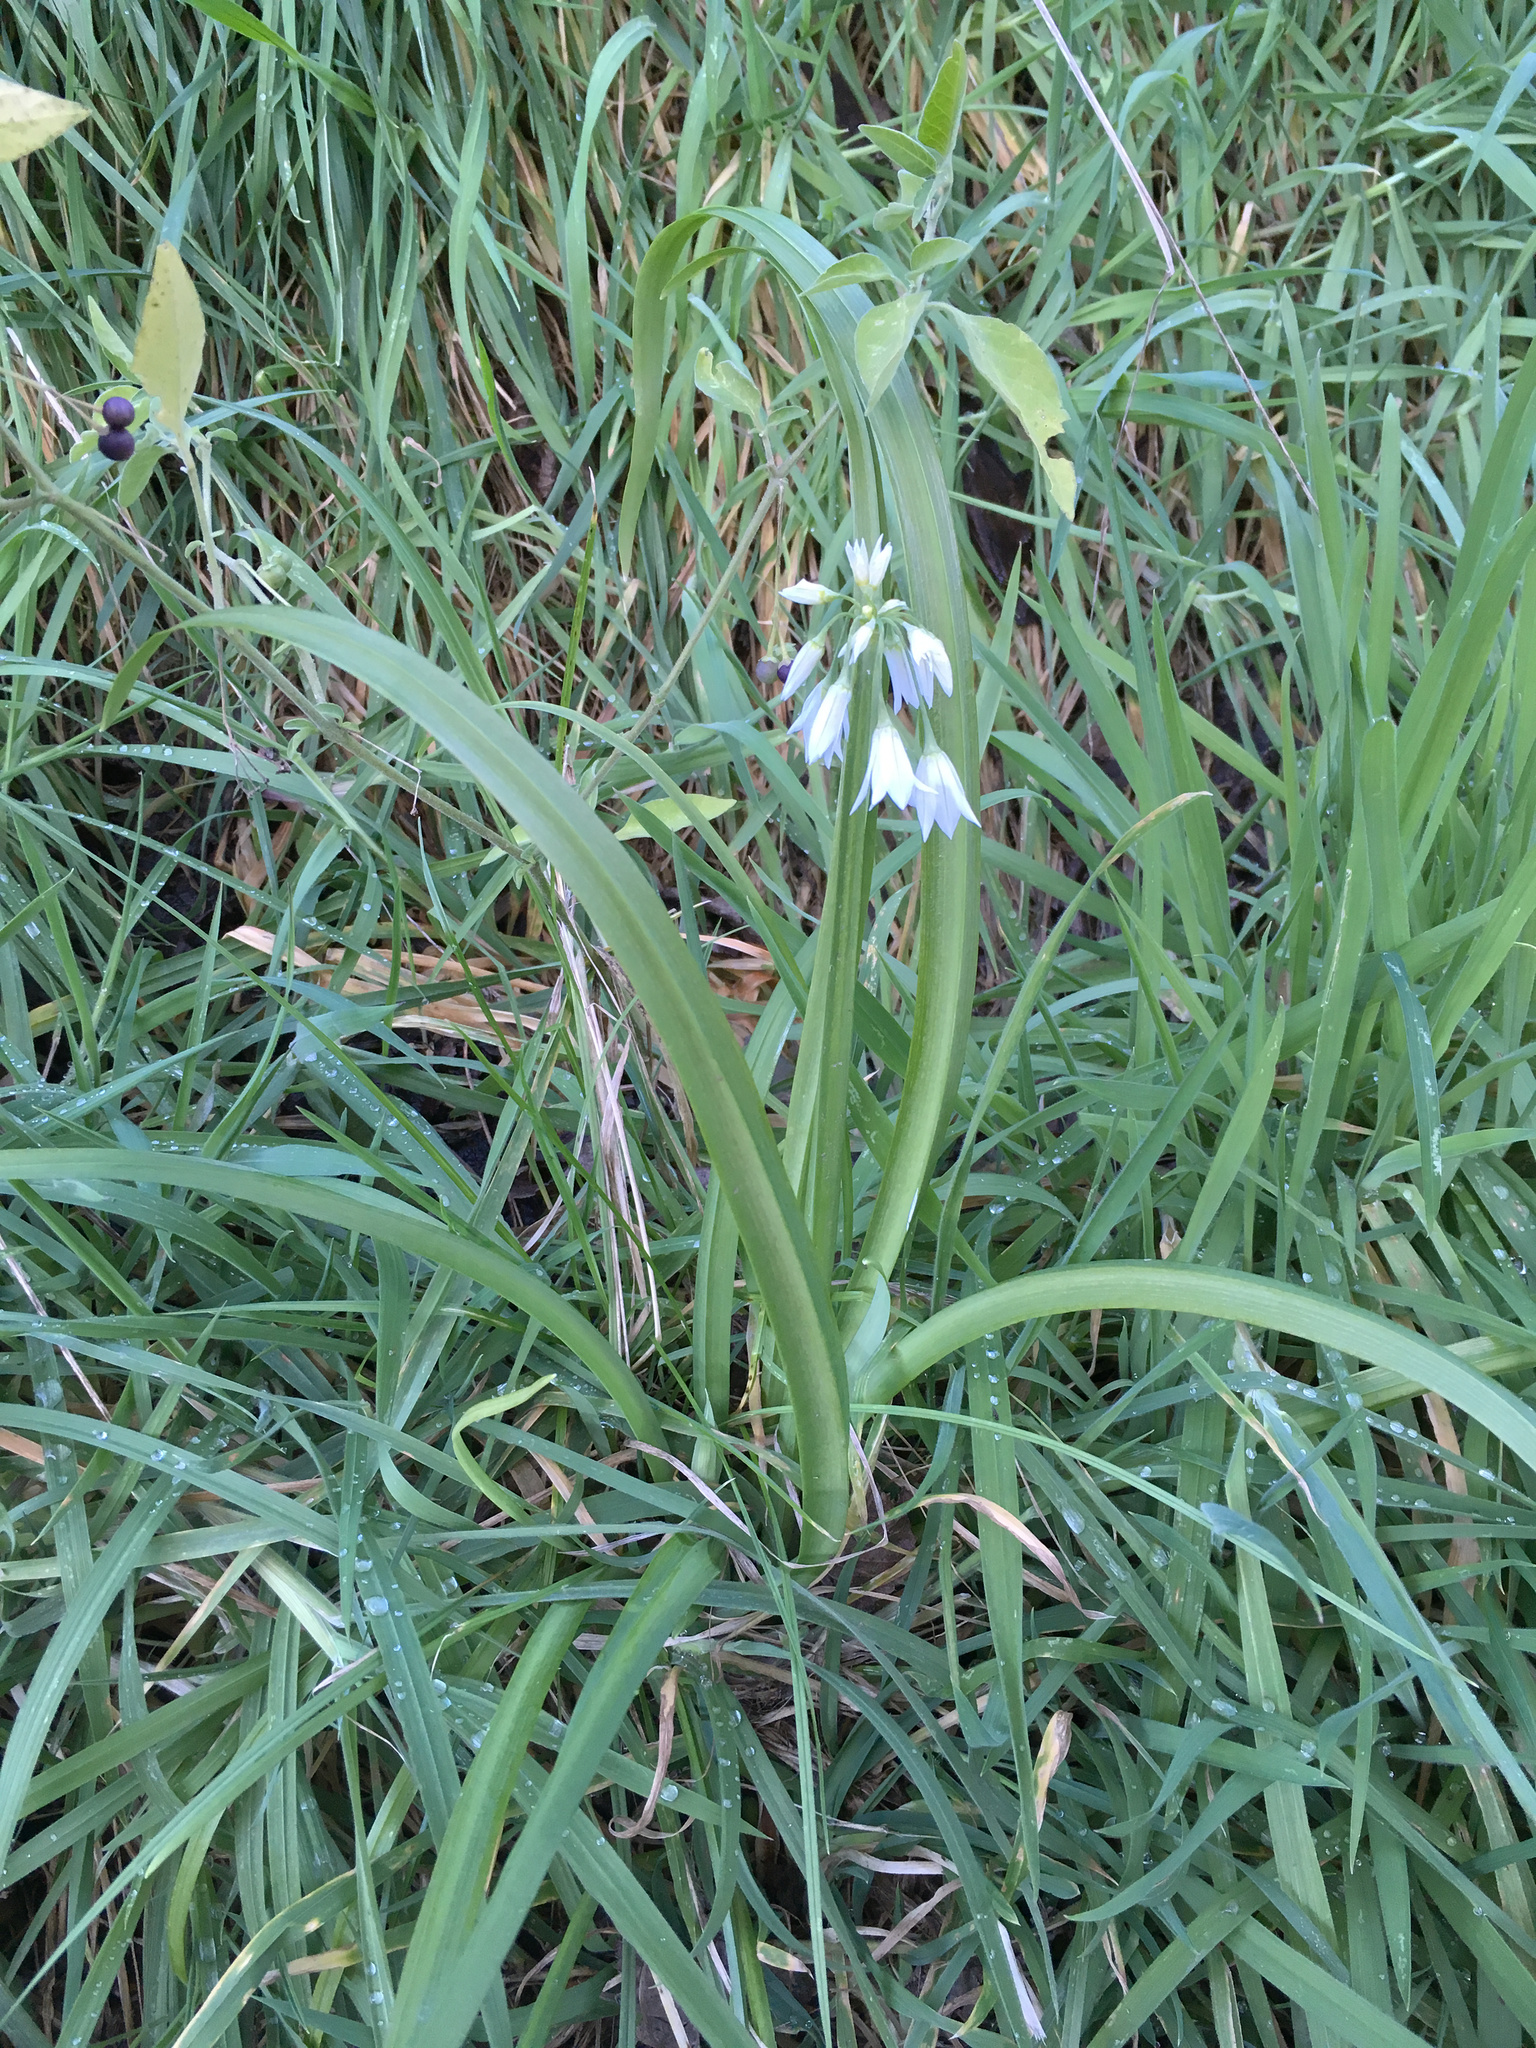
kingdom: Plantae
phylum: Tracheophyta
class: Liliopsida
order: Asparagales
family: Amaryllidaceae
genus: Allium
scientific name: Allium triquetrum
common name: Three-cornered garlic
